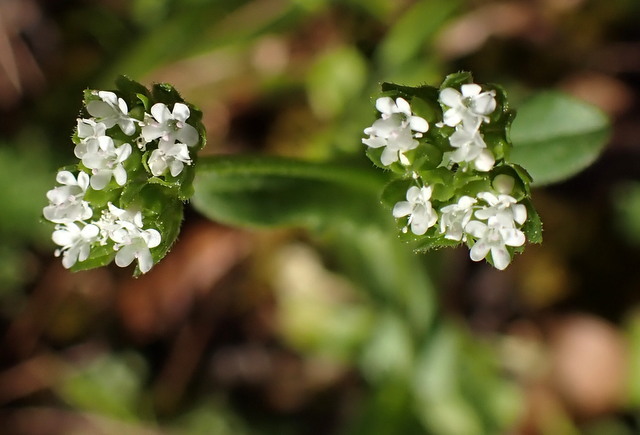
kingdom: Plantae
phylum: Tracheophyta
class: Magnoliopsida
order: Dipsacales
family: Caprifoliaceae
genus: Valerianella
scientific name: Valerianella radiata
